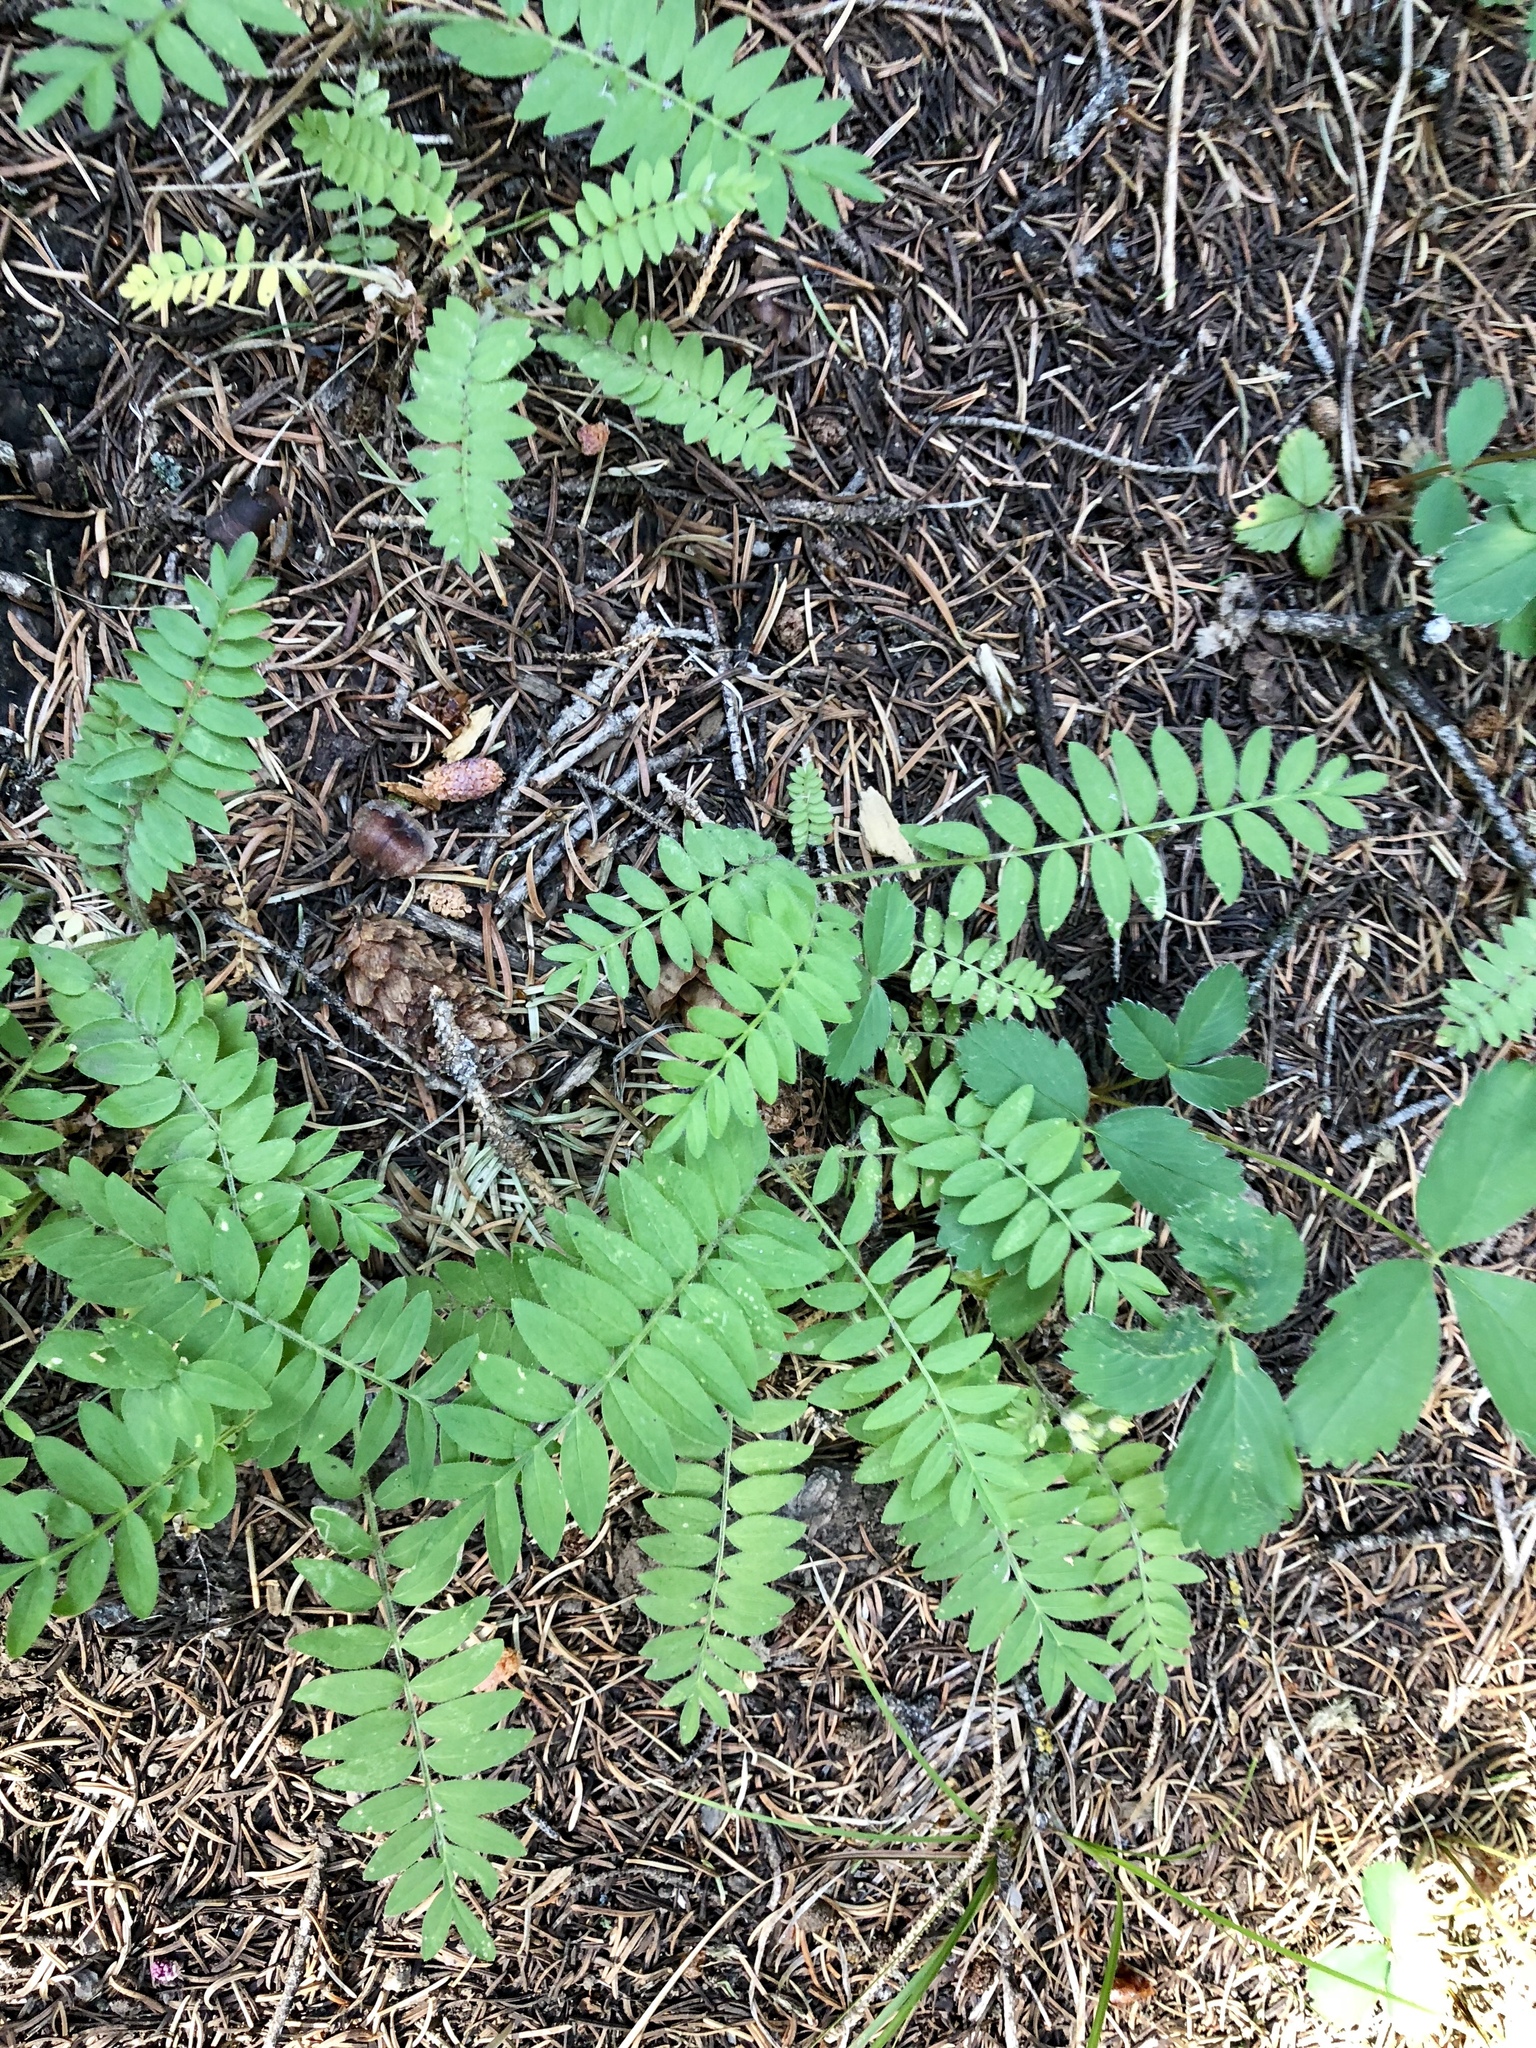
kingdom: Plantae
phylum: Tracheophyta
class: Magnoliopsida
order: Ericales
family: Polemoniaceae
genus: Polemonium
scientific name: Polemonium pulcherrimum
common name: Short jacob's-ladder
